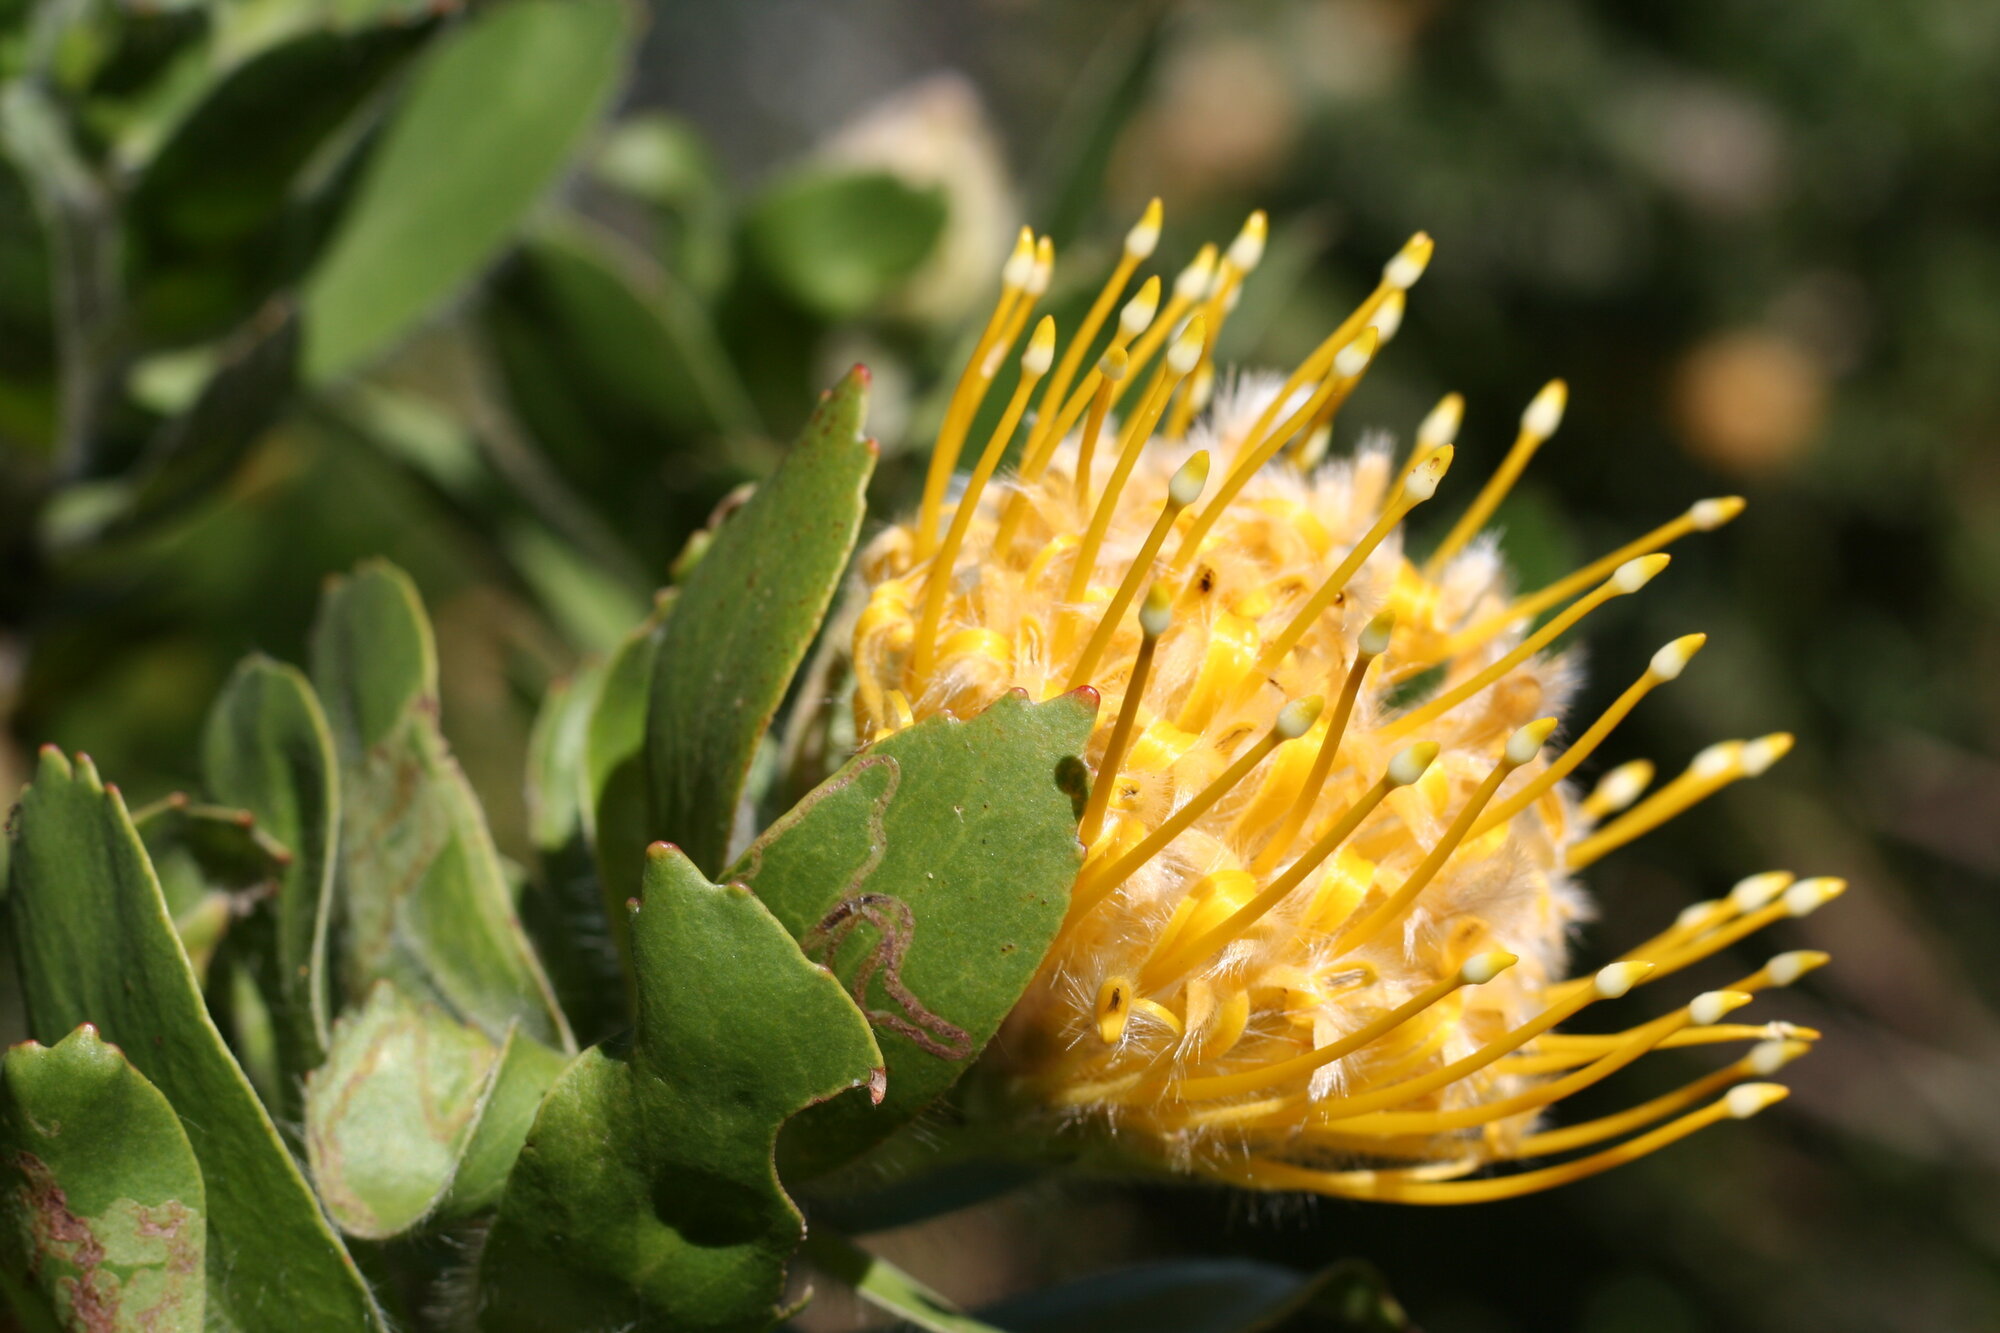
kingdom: Plantae
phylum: Tracheophyta
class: Magnoliopsida
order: Proteales
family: Proteaceae
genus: Leucospermum
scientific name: Leucospermum conocarpodendron
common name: Tree pincushion
